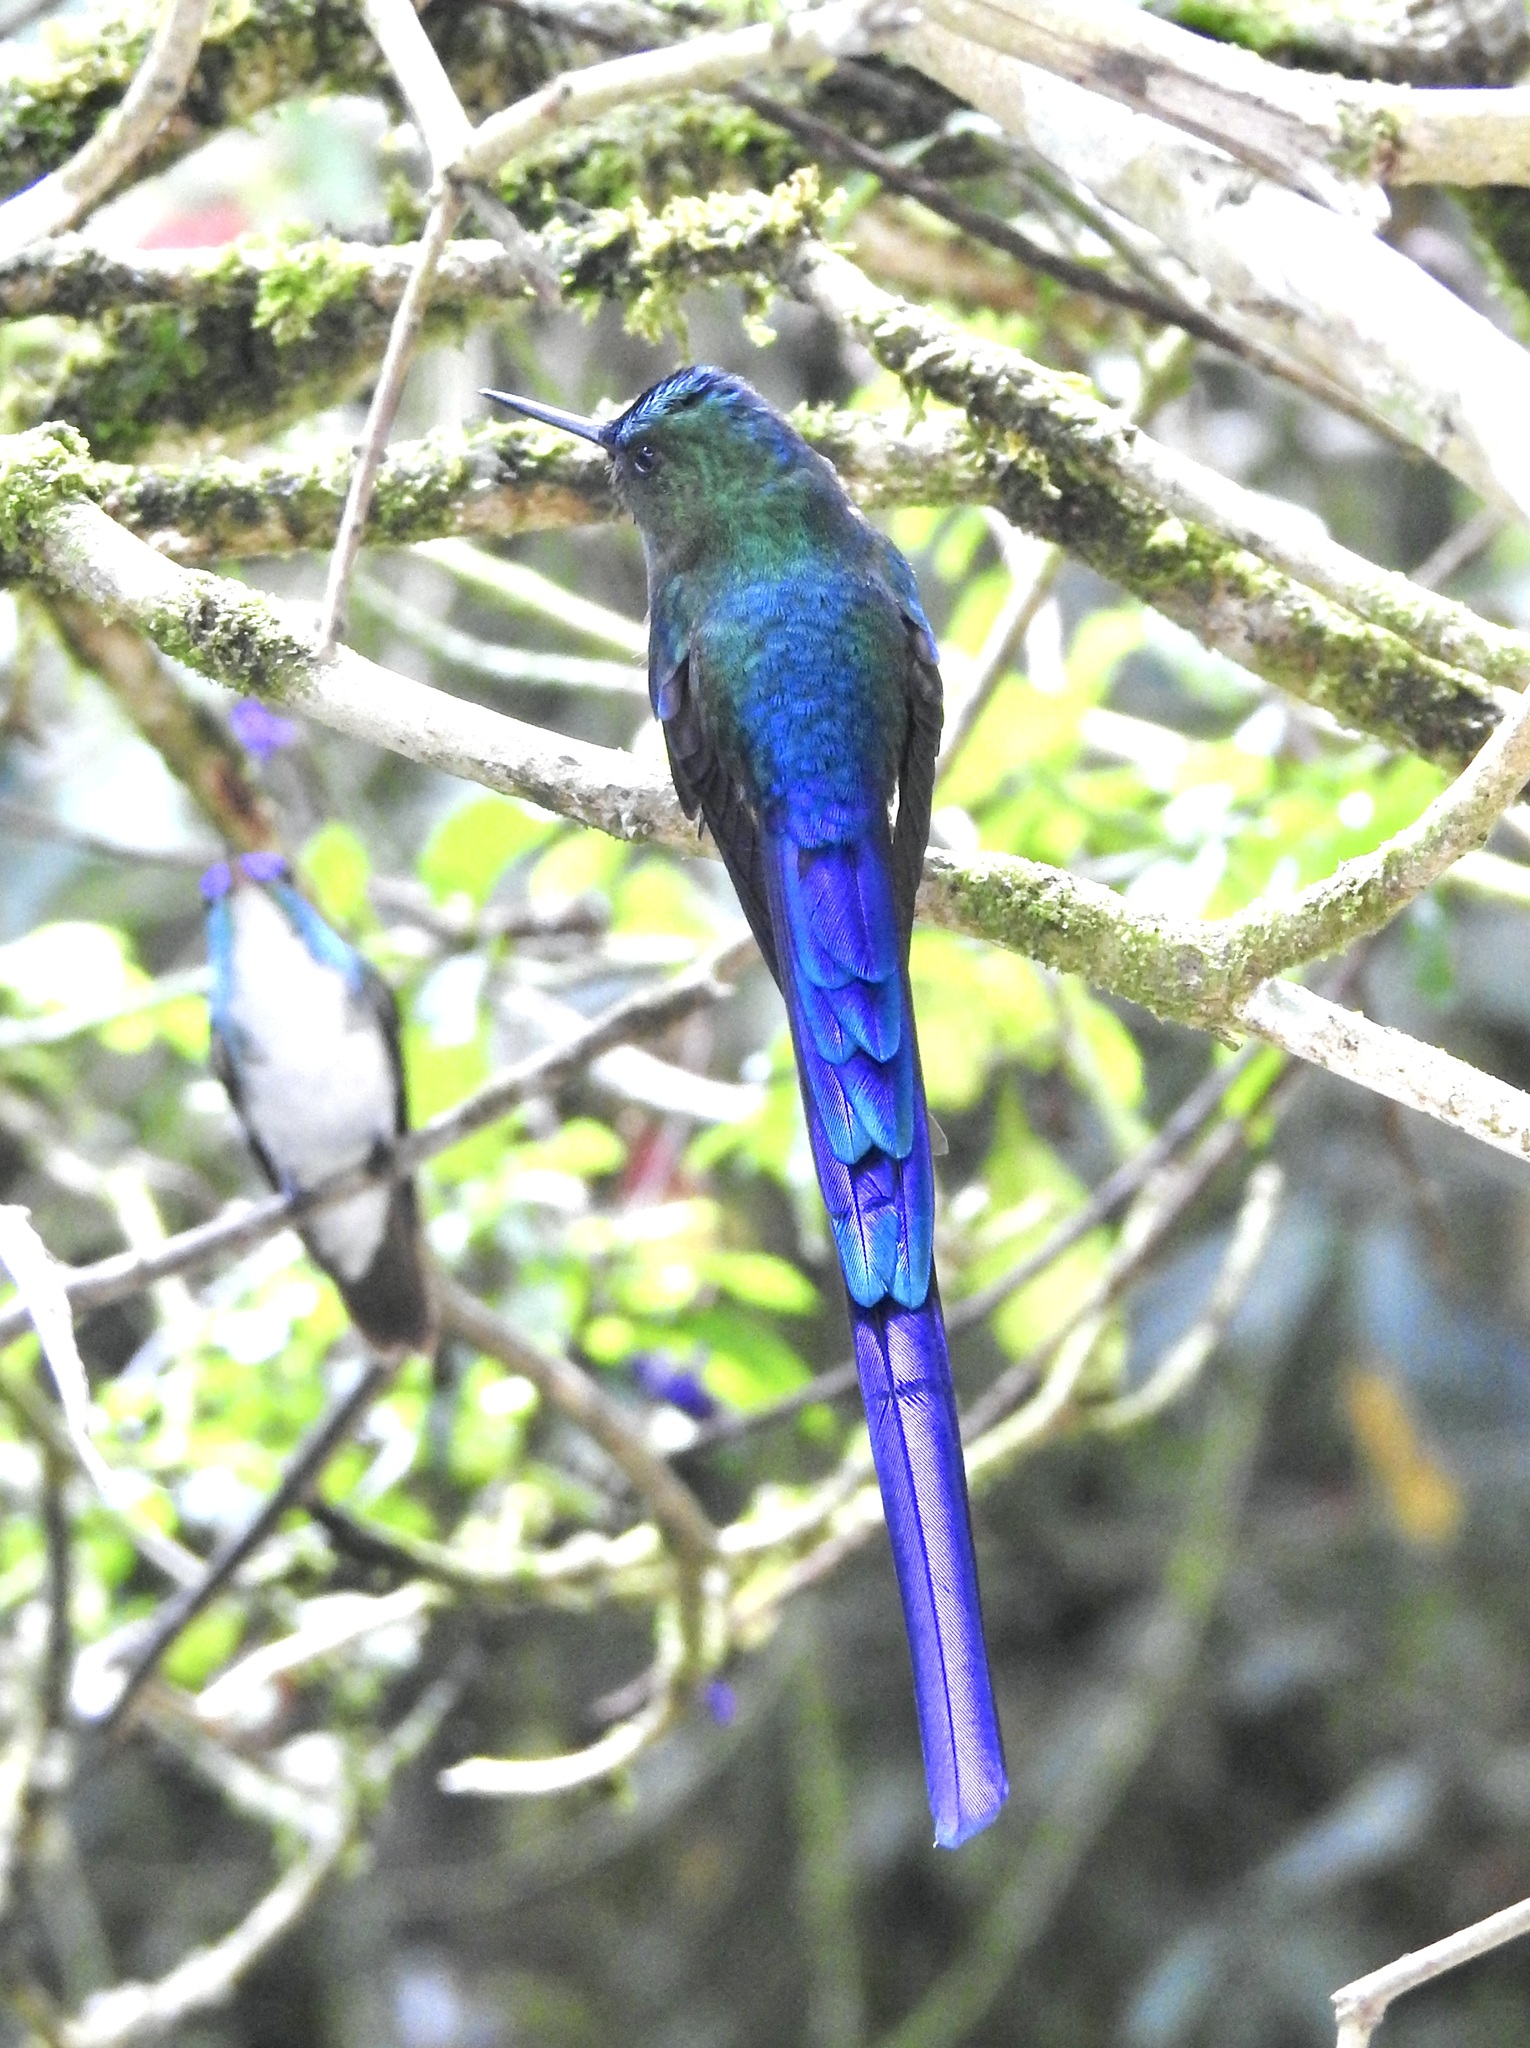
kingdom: Animalia
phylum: Chordata
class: Aves
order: Apodiformes
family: Trochilidae
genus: Aglaiocercus
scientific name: Aglaiocercus coelestis
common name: Violet-tailed sylph
